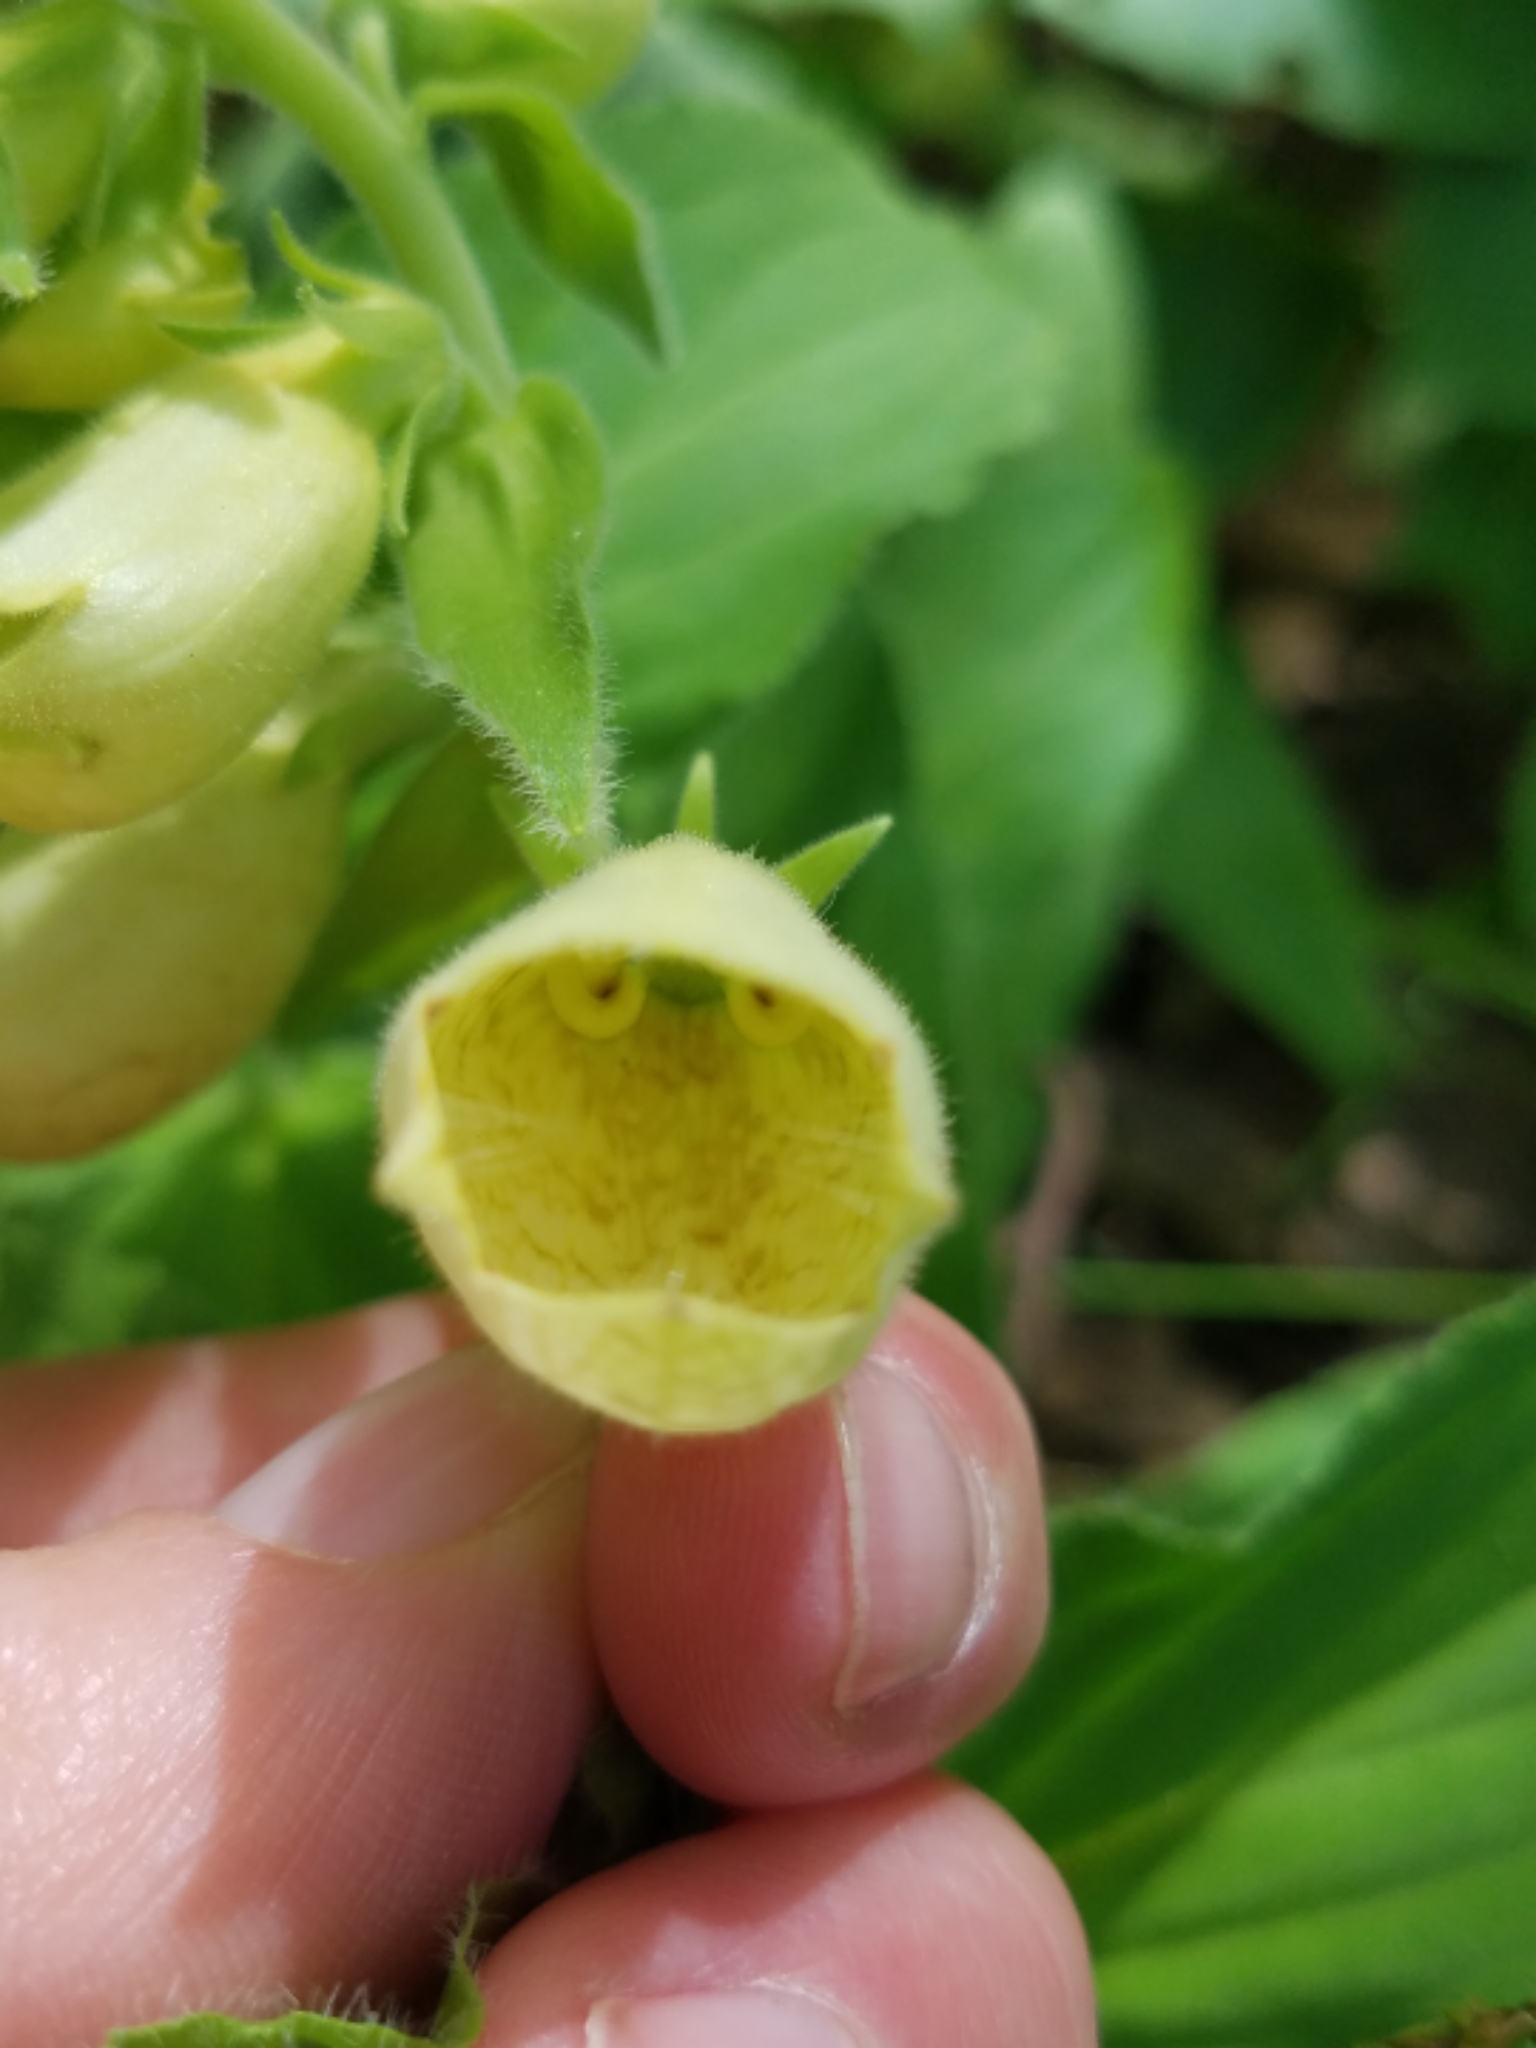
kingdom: Plantae
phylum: Tracheophyta
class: Magnoliopsida
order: Lamiales
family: Plantaginaceae
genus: Digitalis
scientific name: Digitalis grandiflora
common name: Yellow foxglove
